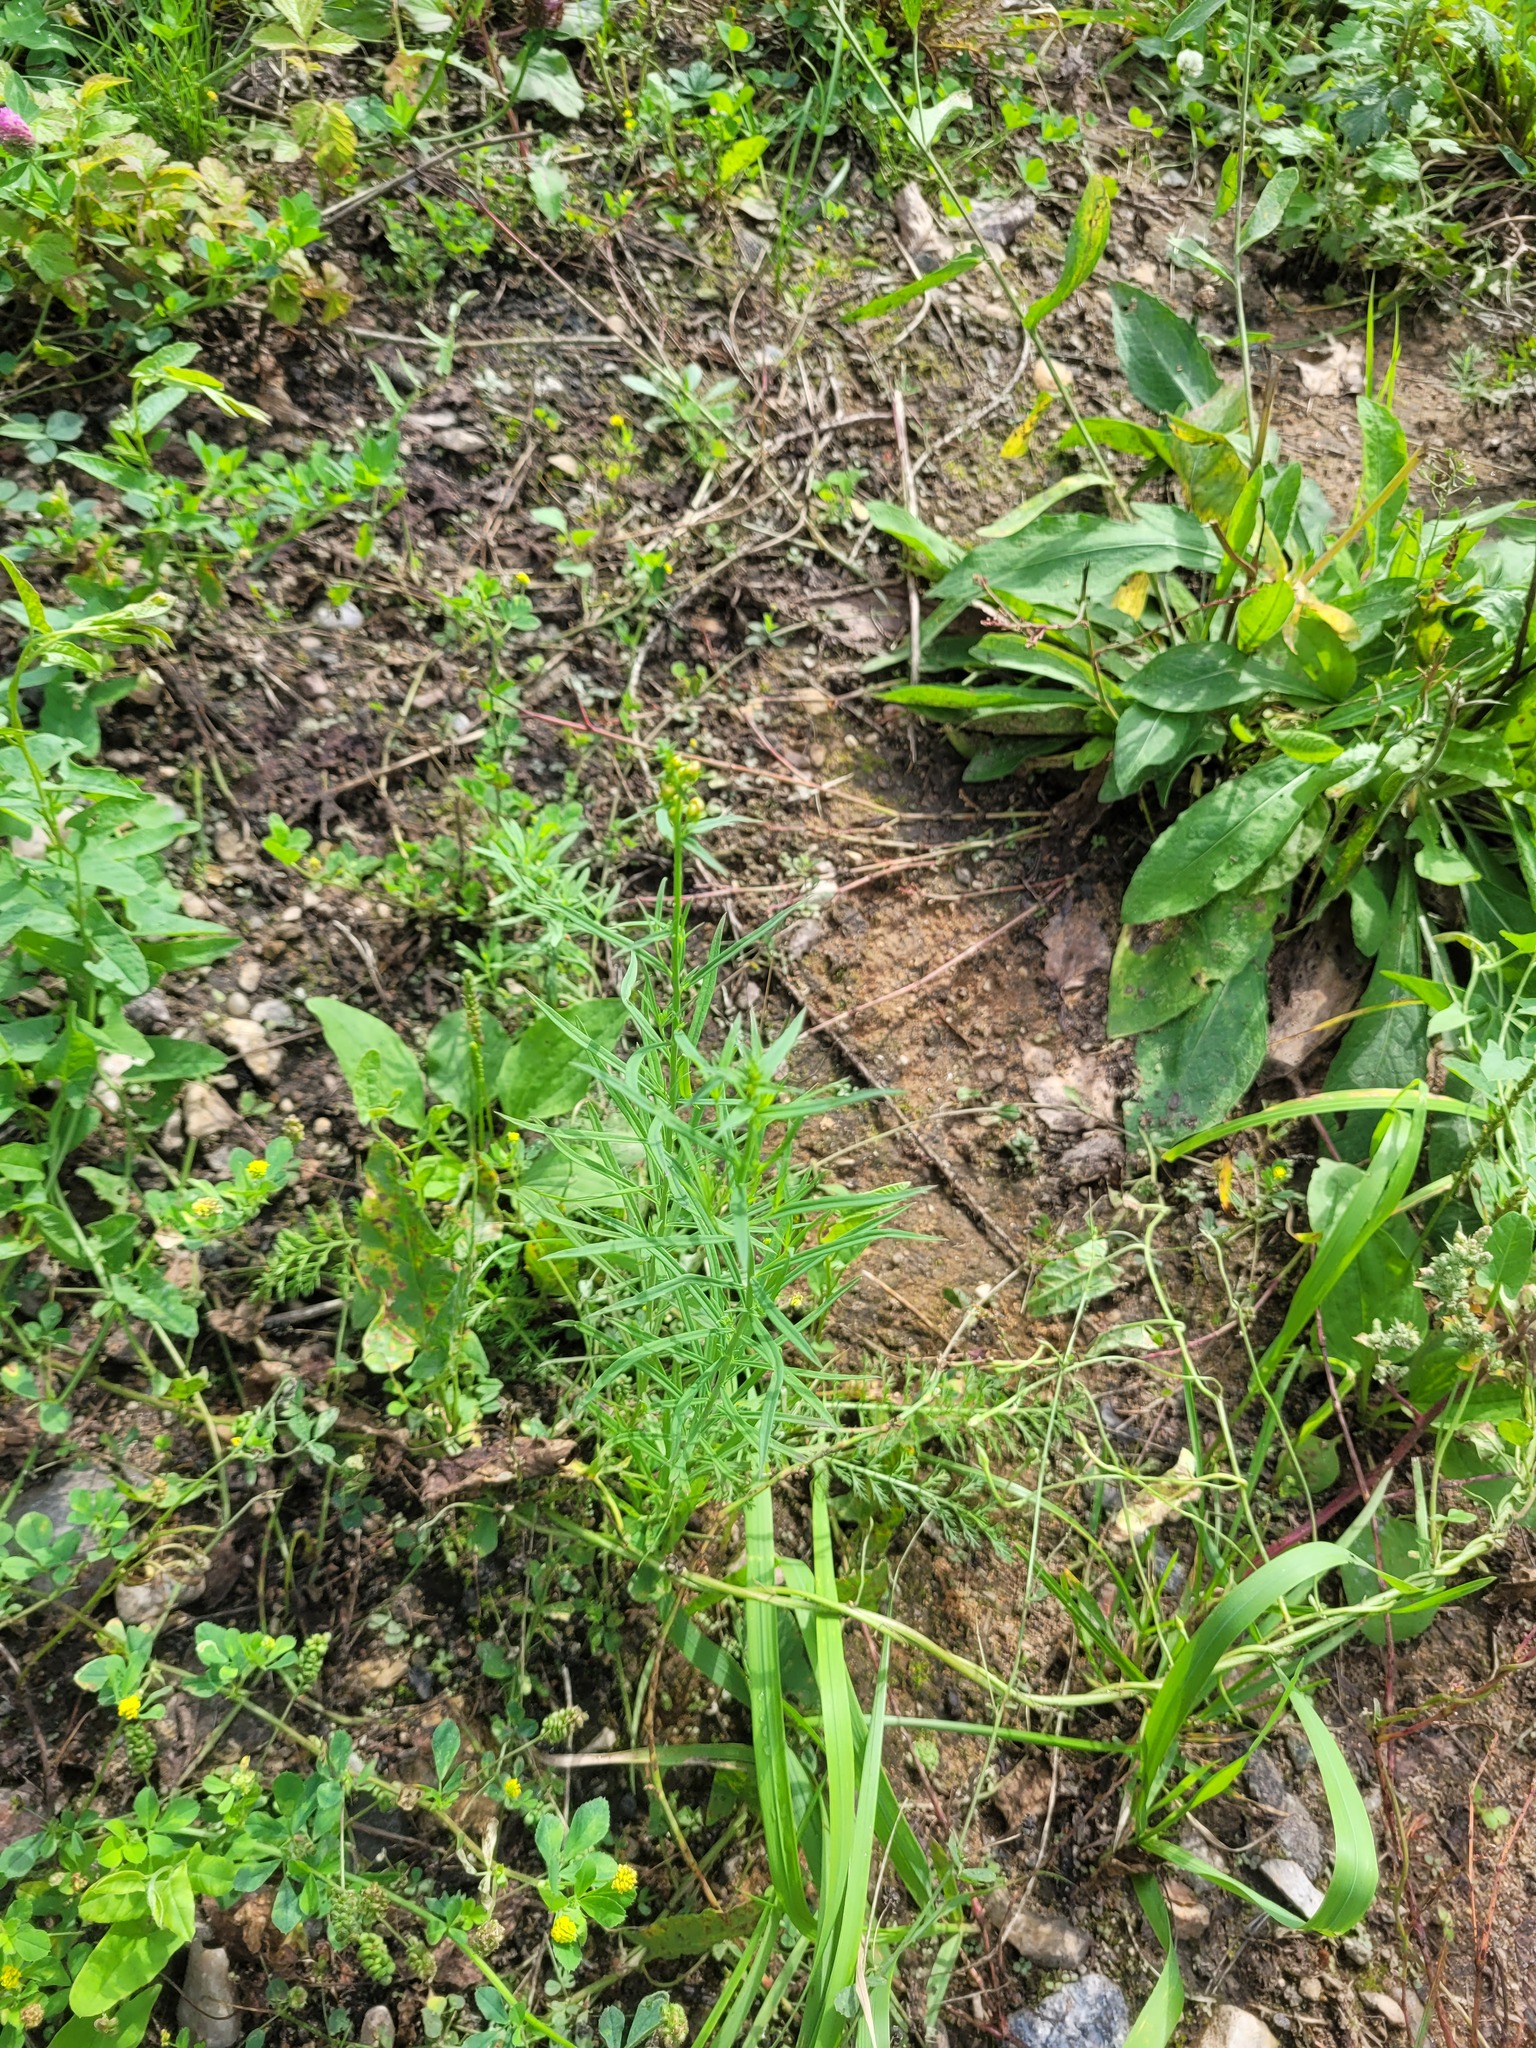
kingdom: Plantae
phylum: Tracheophyta
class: Magnoliopsida
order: Lamiales
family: Plantaginaceae
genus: Linaria
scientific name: Linaria vulgaris
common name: Butter and eggs
